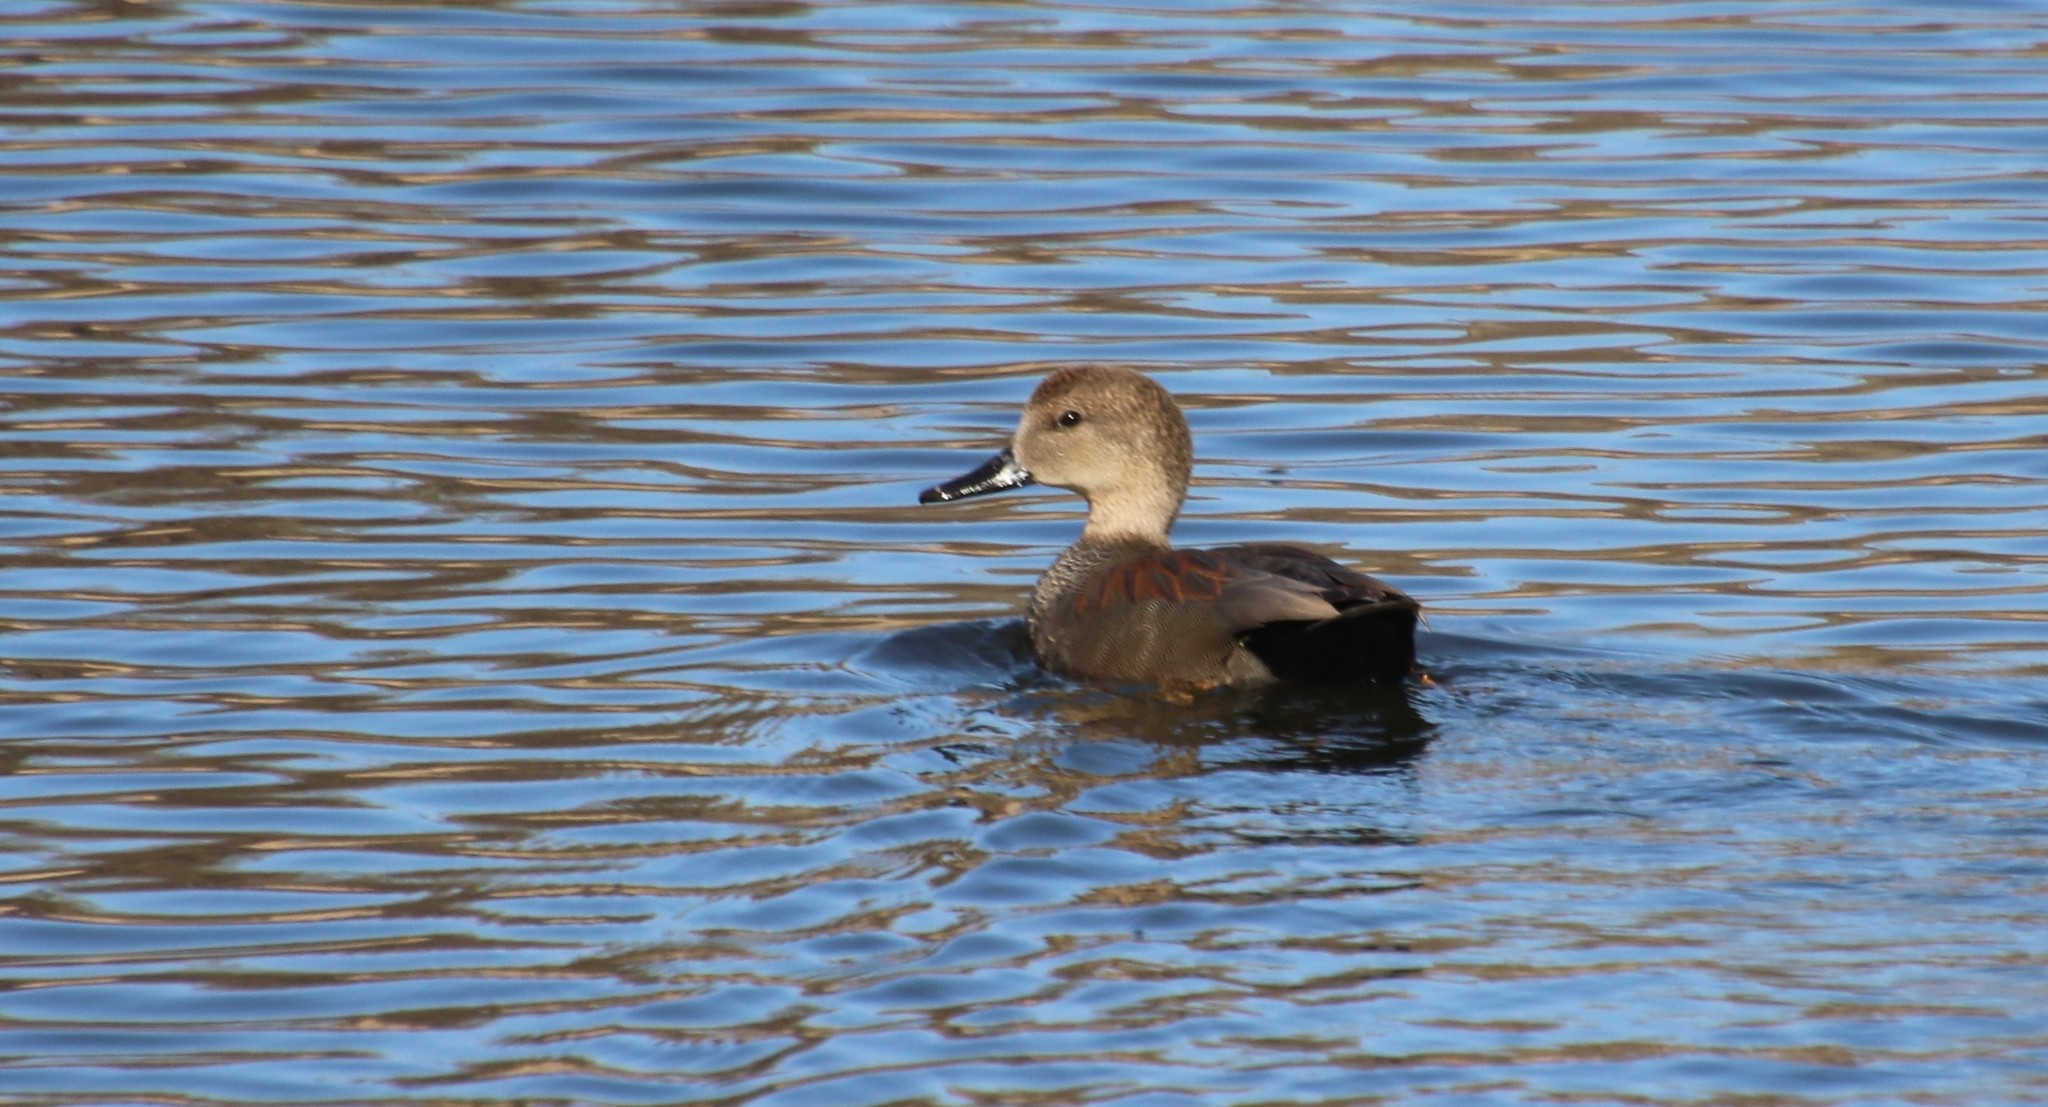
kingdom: Animalia
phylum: Chordata
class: Aves
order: Anseriformes
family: Anatidae
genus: Mareca
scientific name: Mareca strepera
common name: Gadwall
